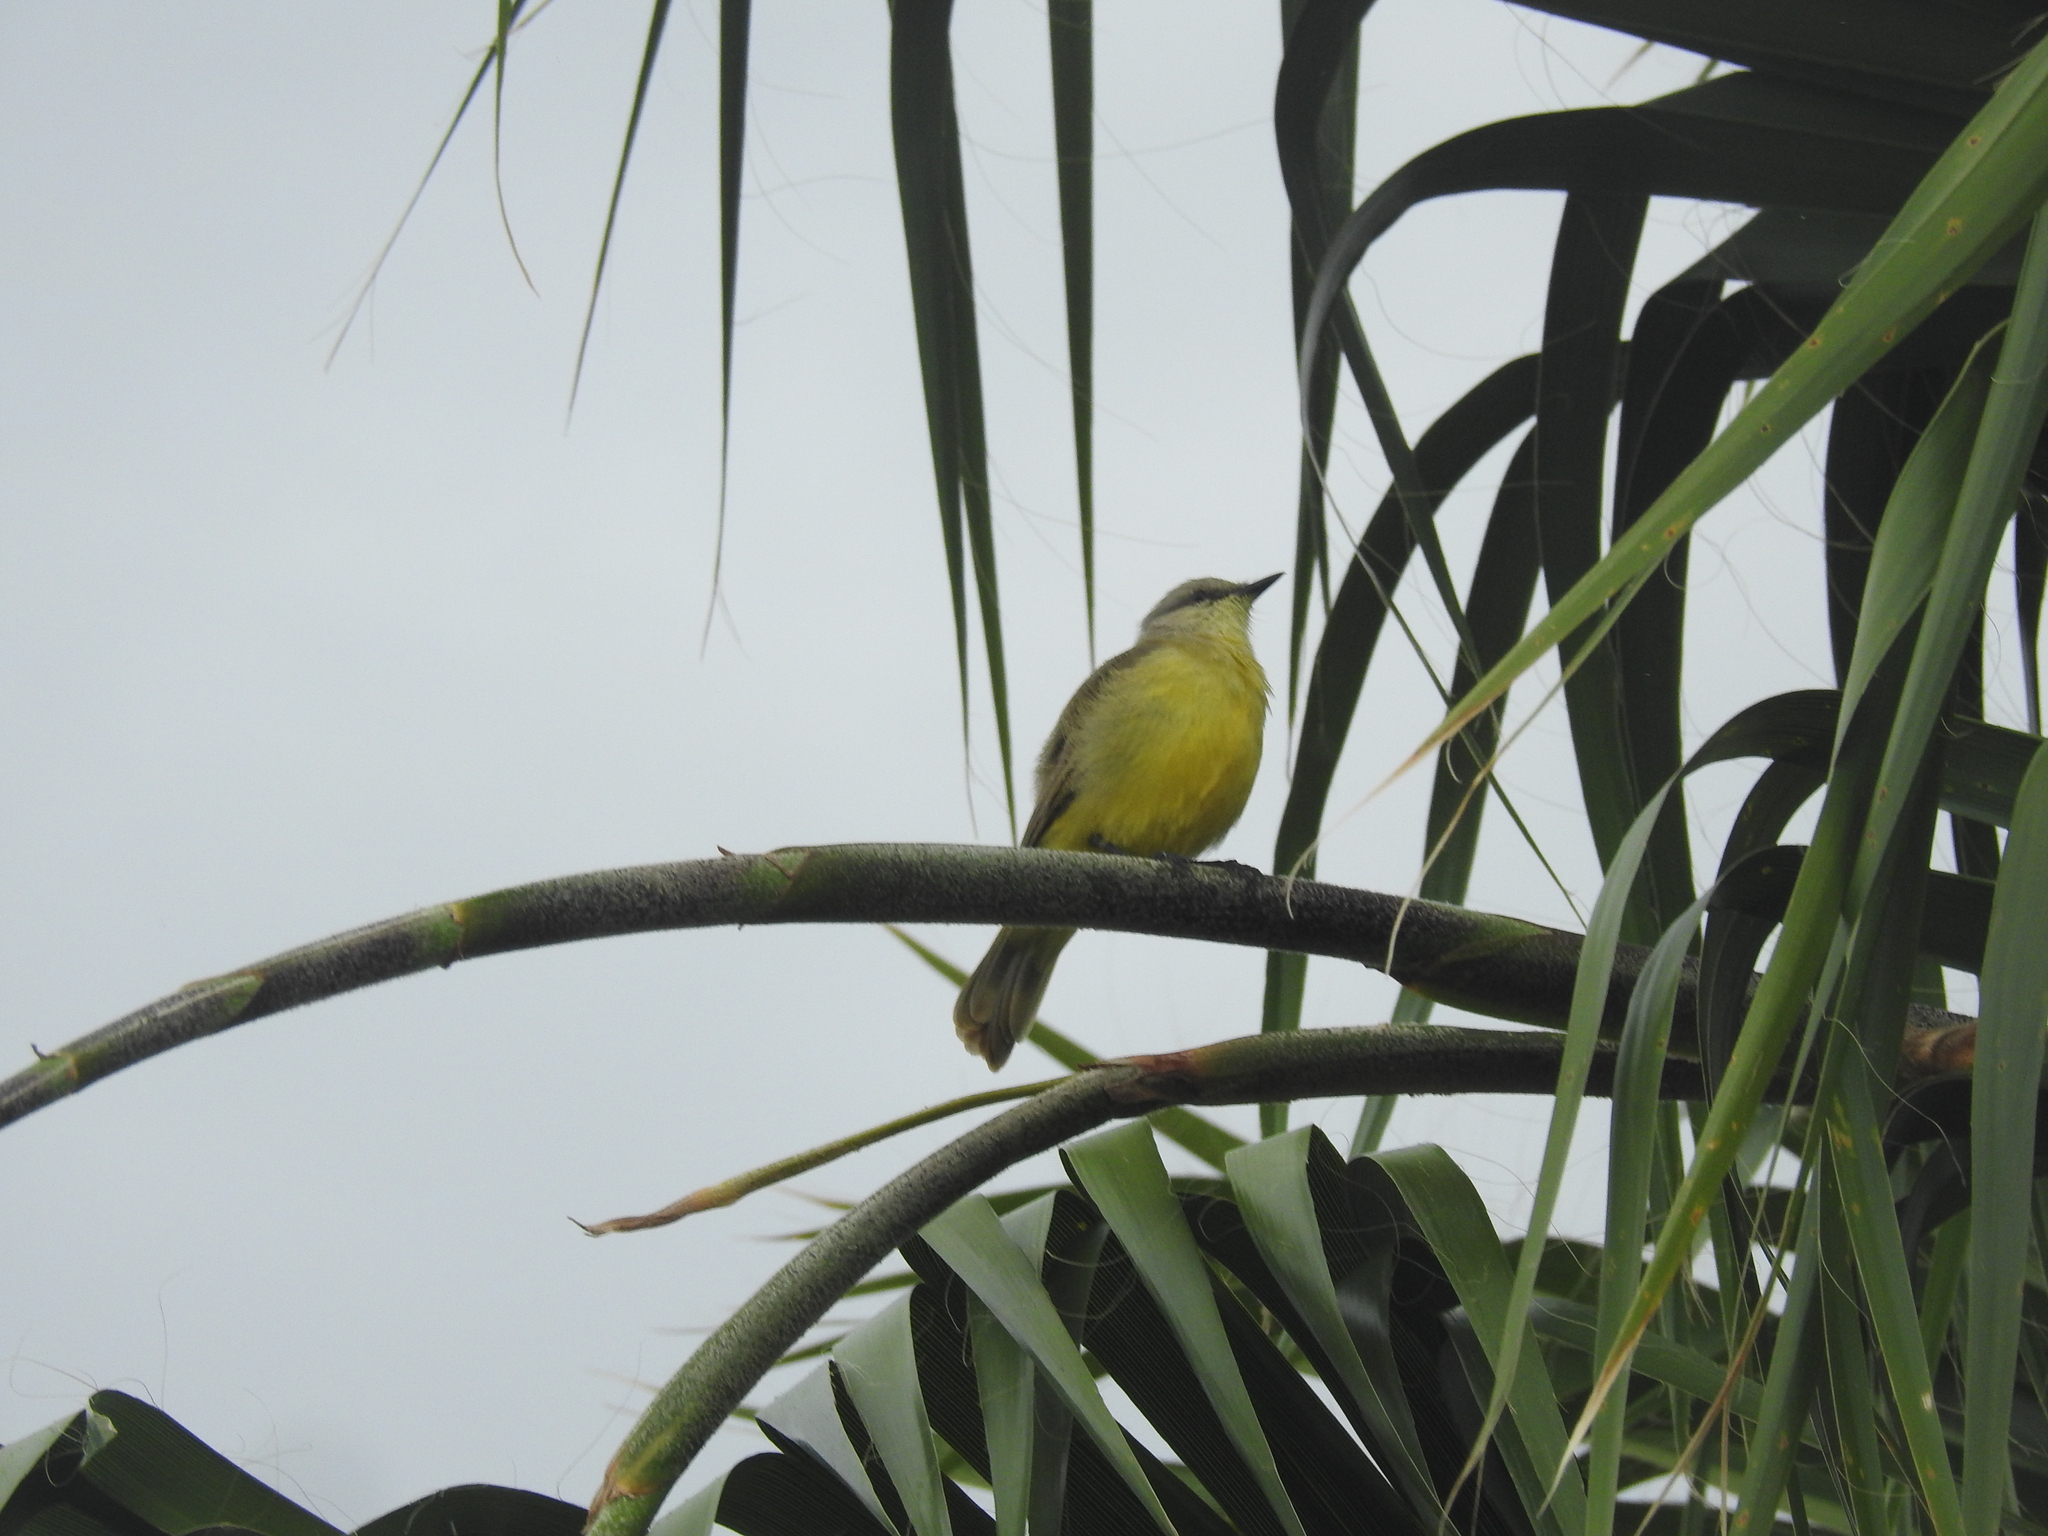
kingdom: Animalia
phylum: Chordata
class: Aves
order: Passeriformes
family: Tyrannidae
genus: Machetornis
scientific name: Machetornis rixosa
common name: Cattle tyrant
